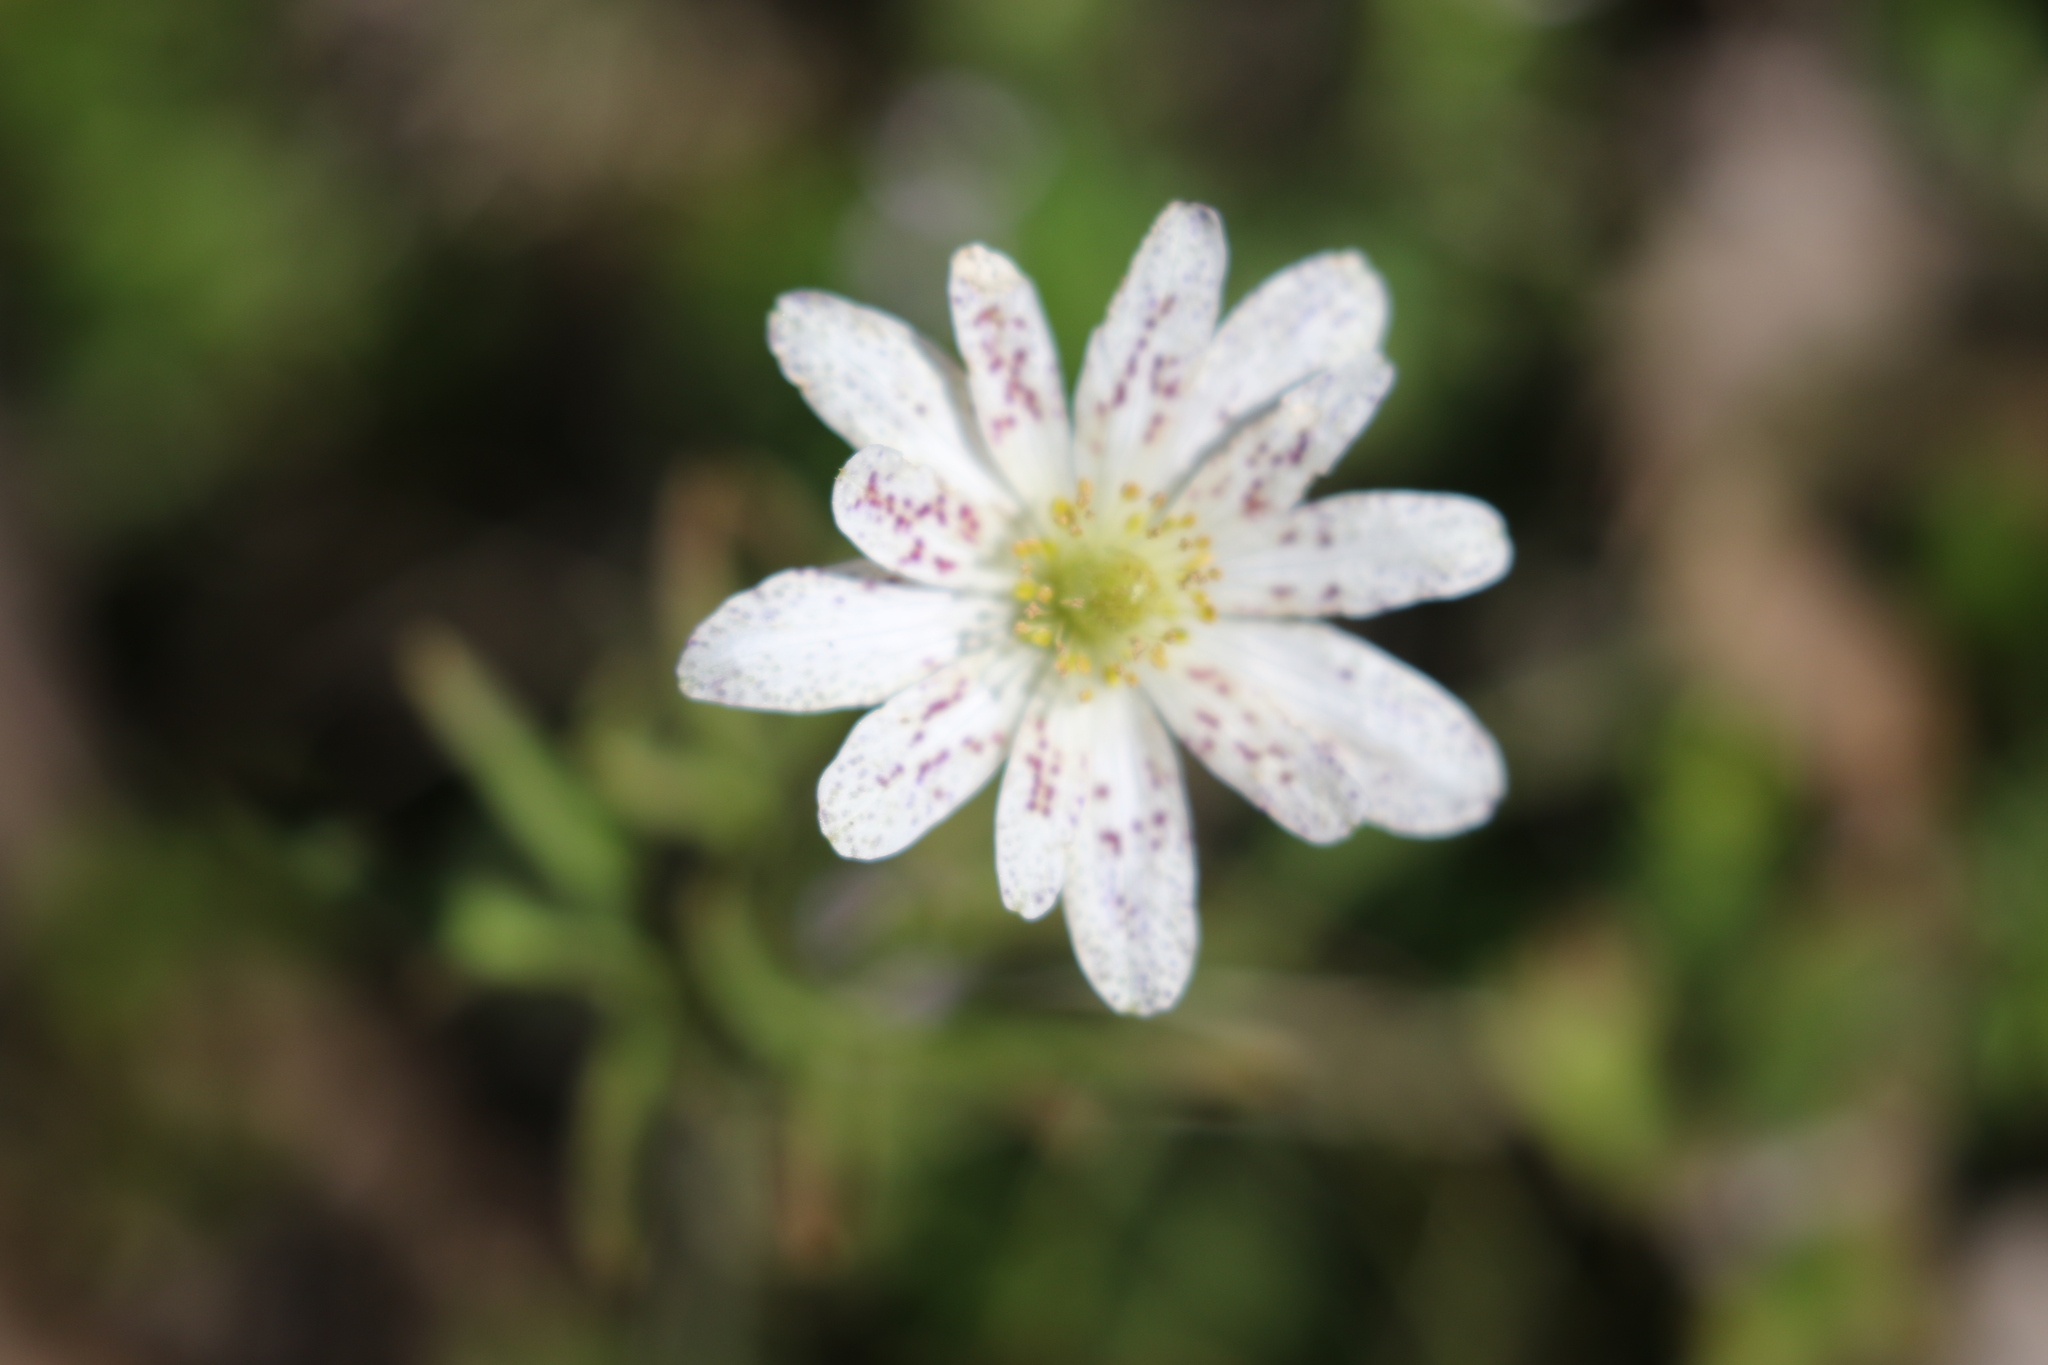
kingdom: Plantae
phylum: Tracheophyta
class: Magnoliopsida
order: Ranunculales
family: Ranunculaceae
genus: Anemone
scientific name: Anemone berlandieri
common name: Ten-petal anemone
